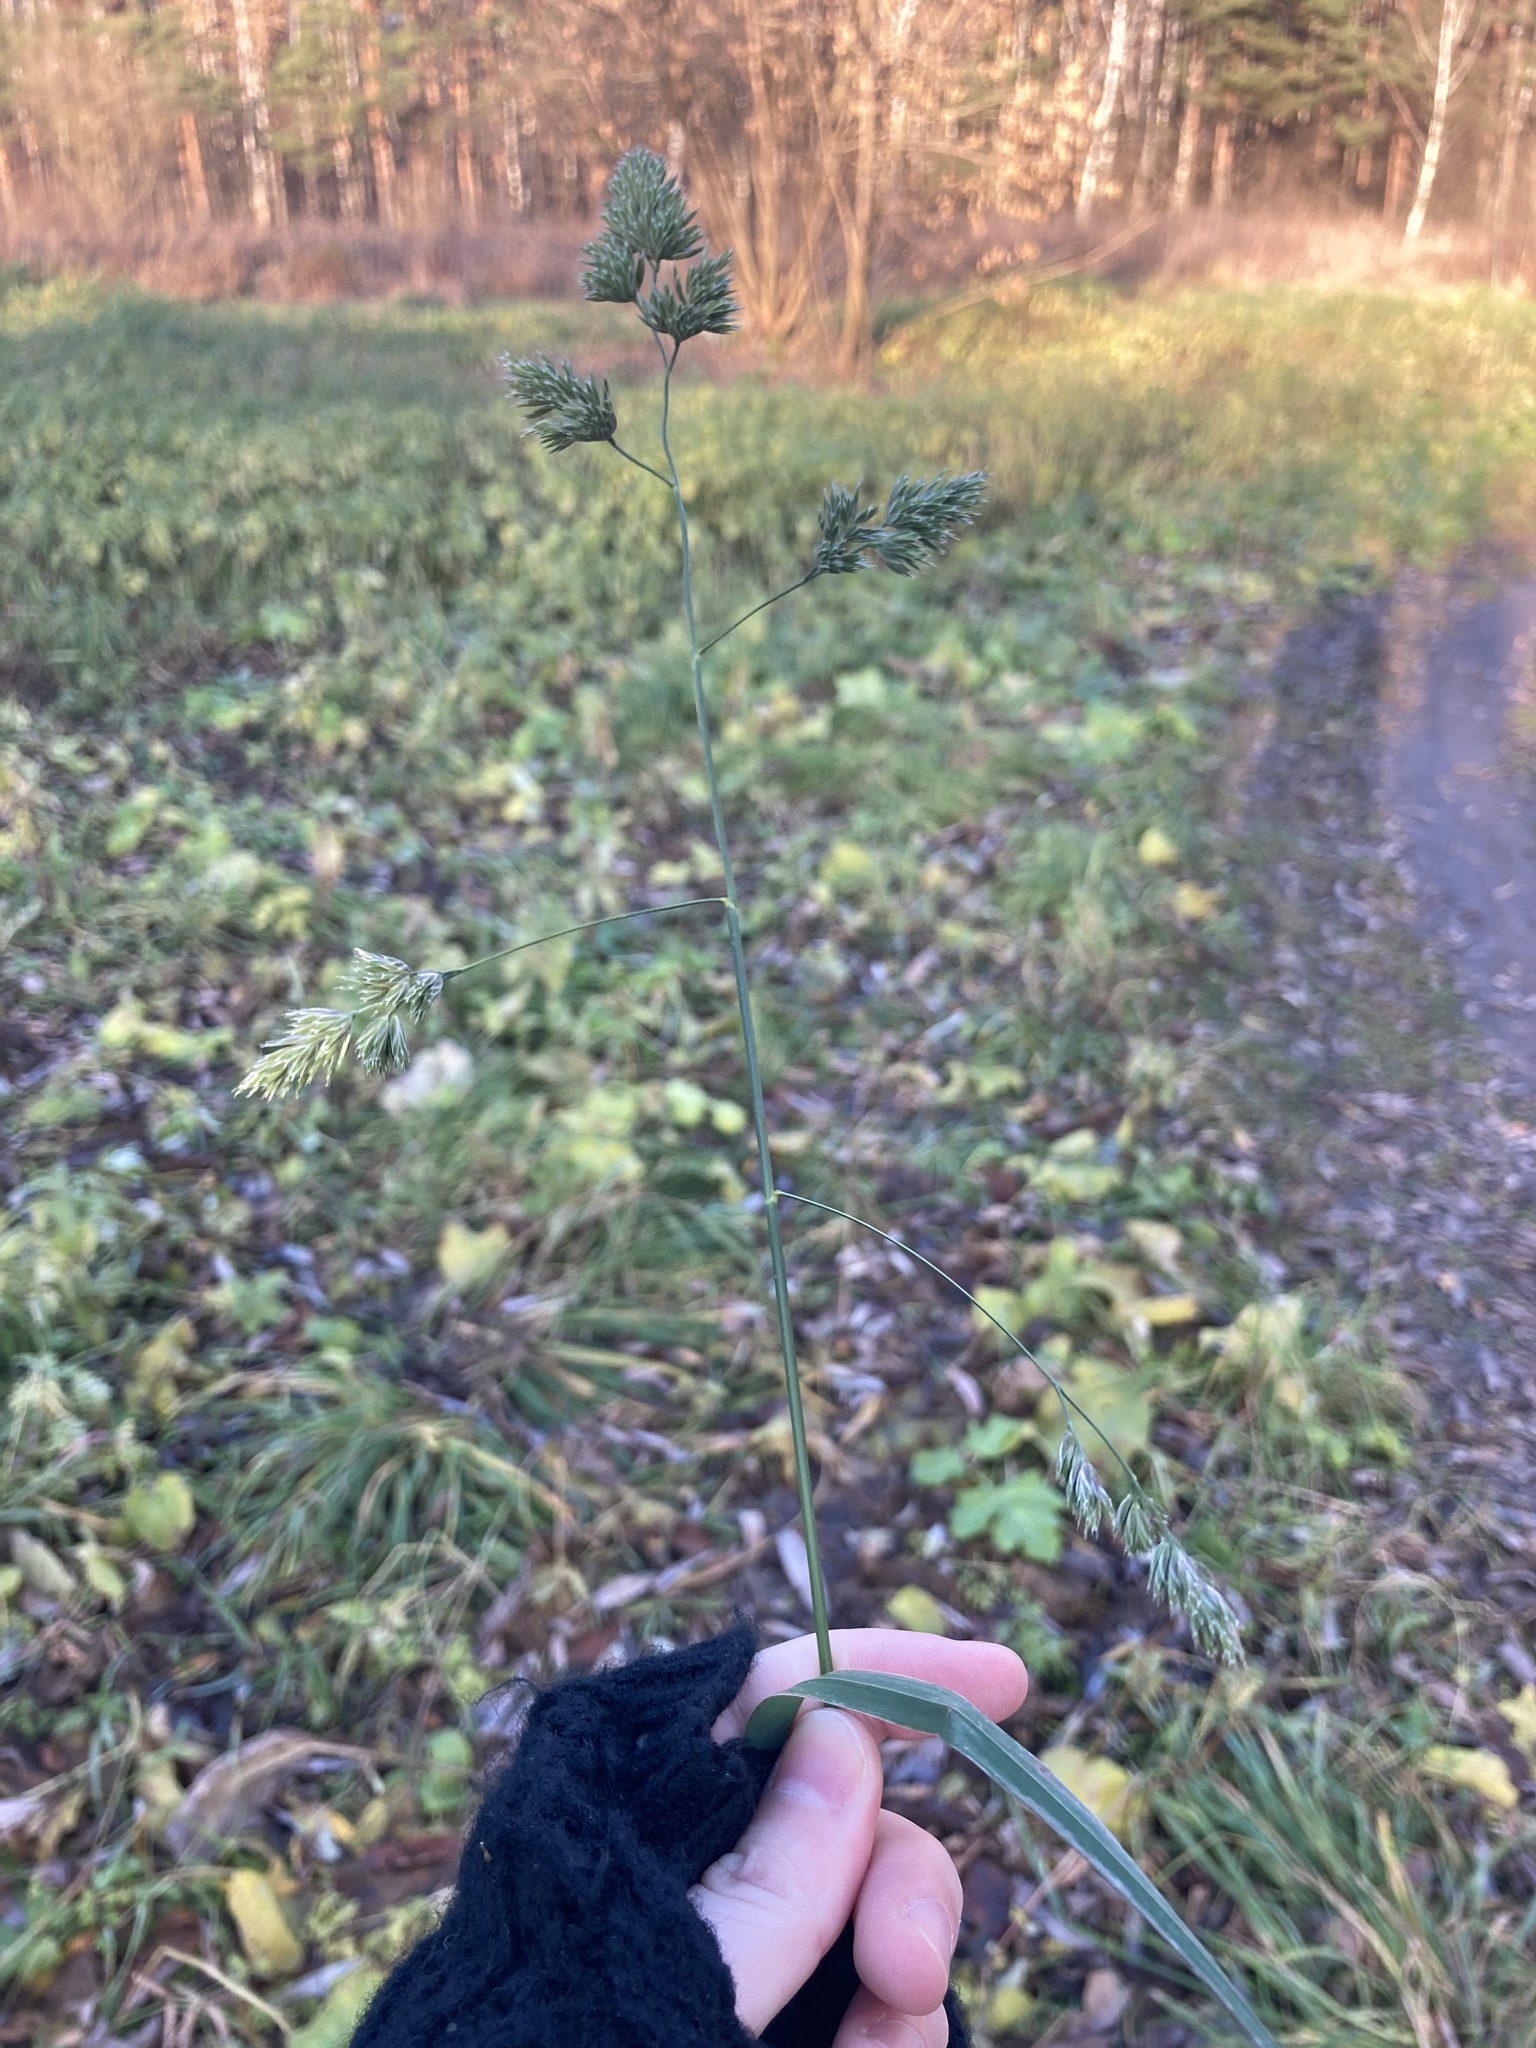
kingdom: Plantae
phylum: Tracheophyta
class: Liliopsida
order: Poales
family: Poaceae
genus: Dactylis
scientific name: Dactylis glomerata
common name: Orchardgrass
